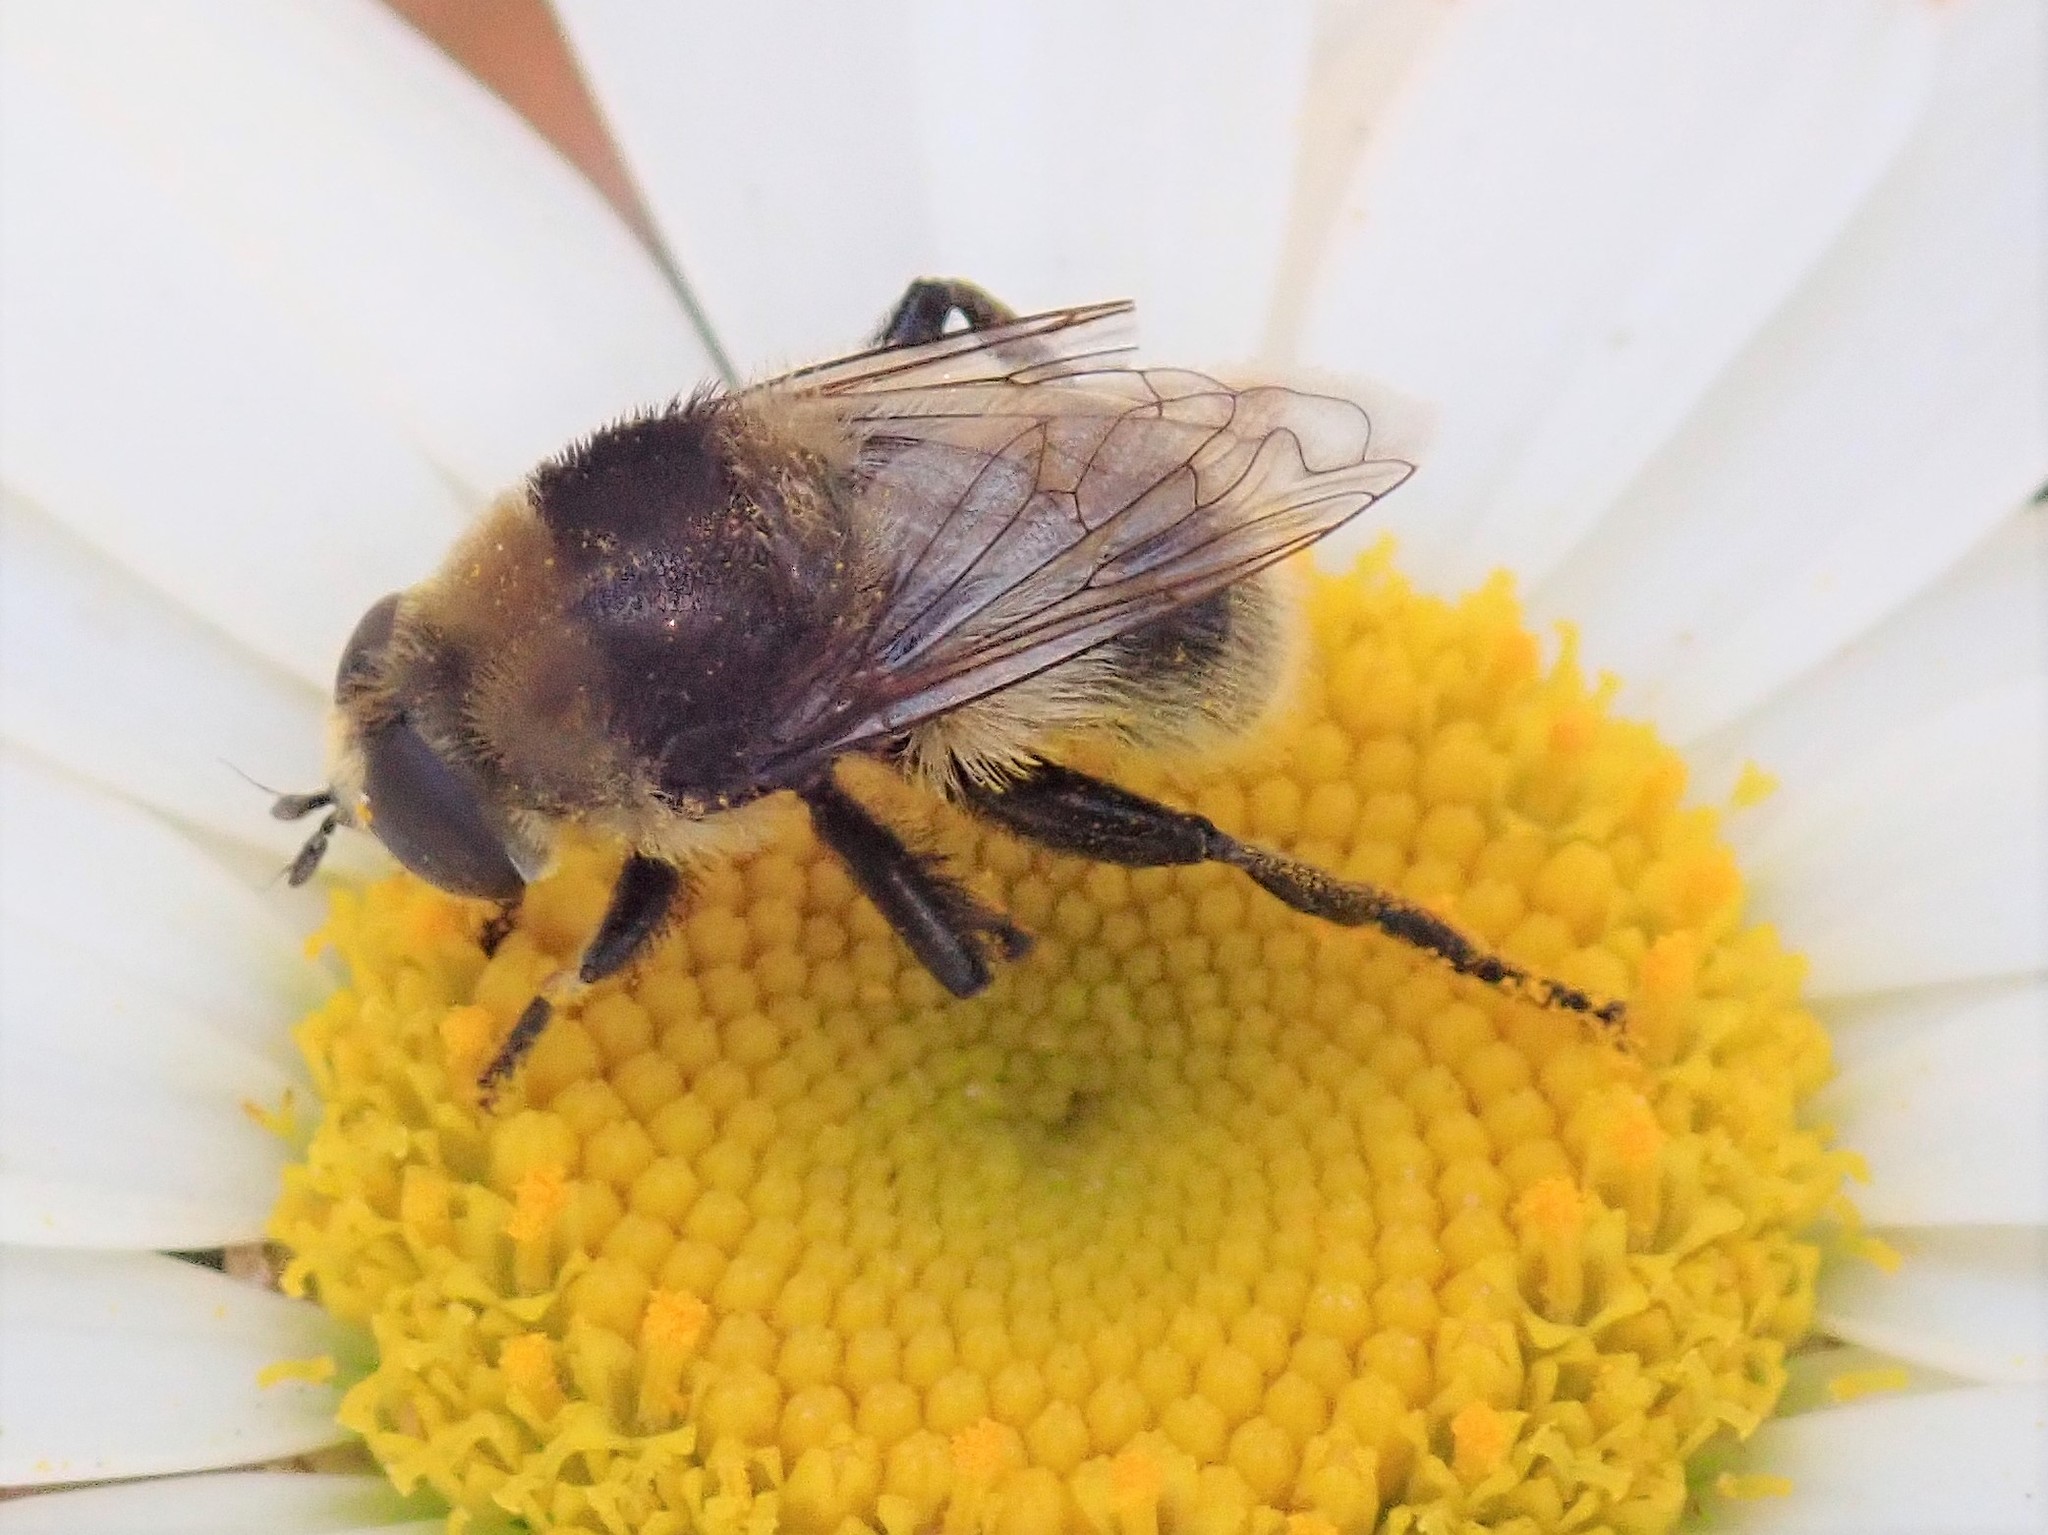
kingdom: Animalia
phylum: Arthropoda
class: Insecta
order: Diptera
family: Syrphidae
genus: Merodon
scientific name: Merodon equestris
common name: Greater bulb-fly
